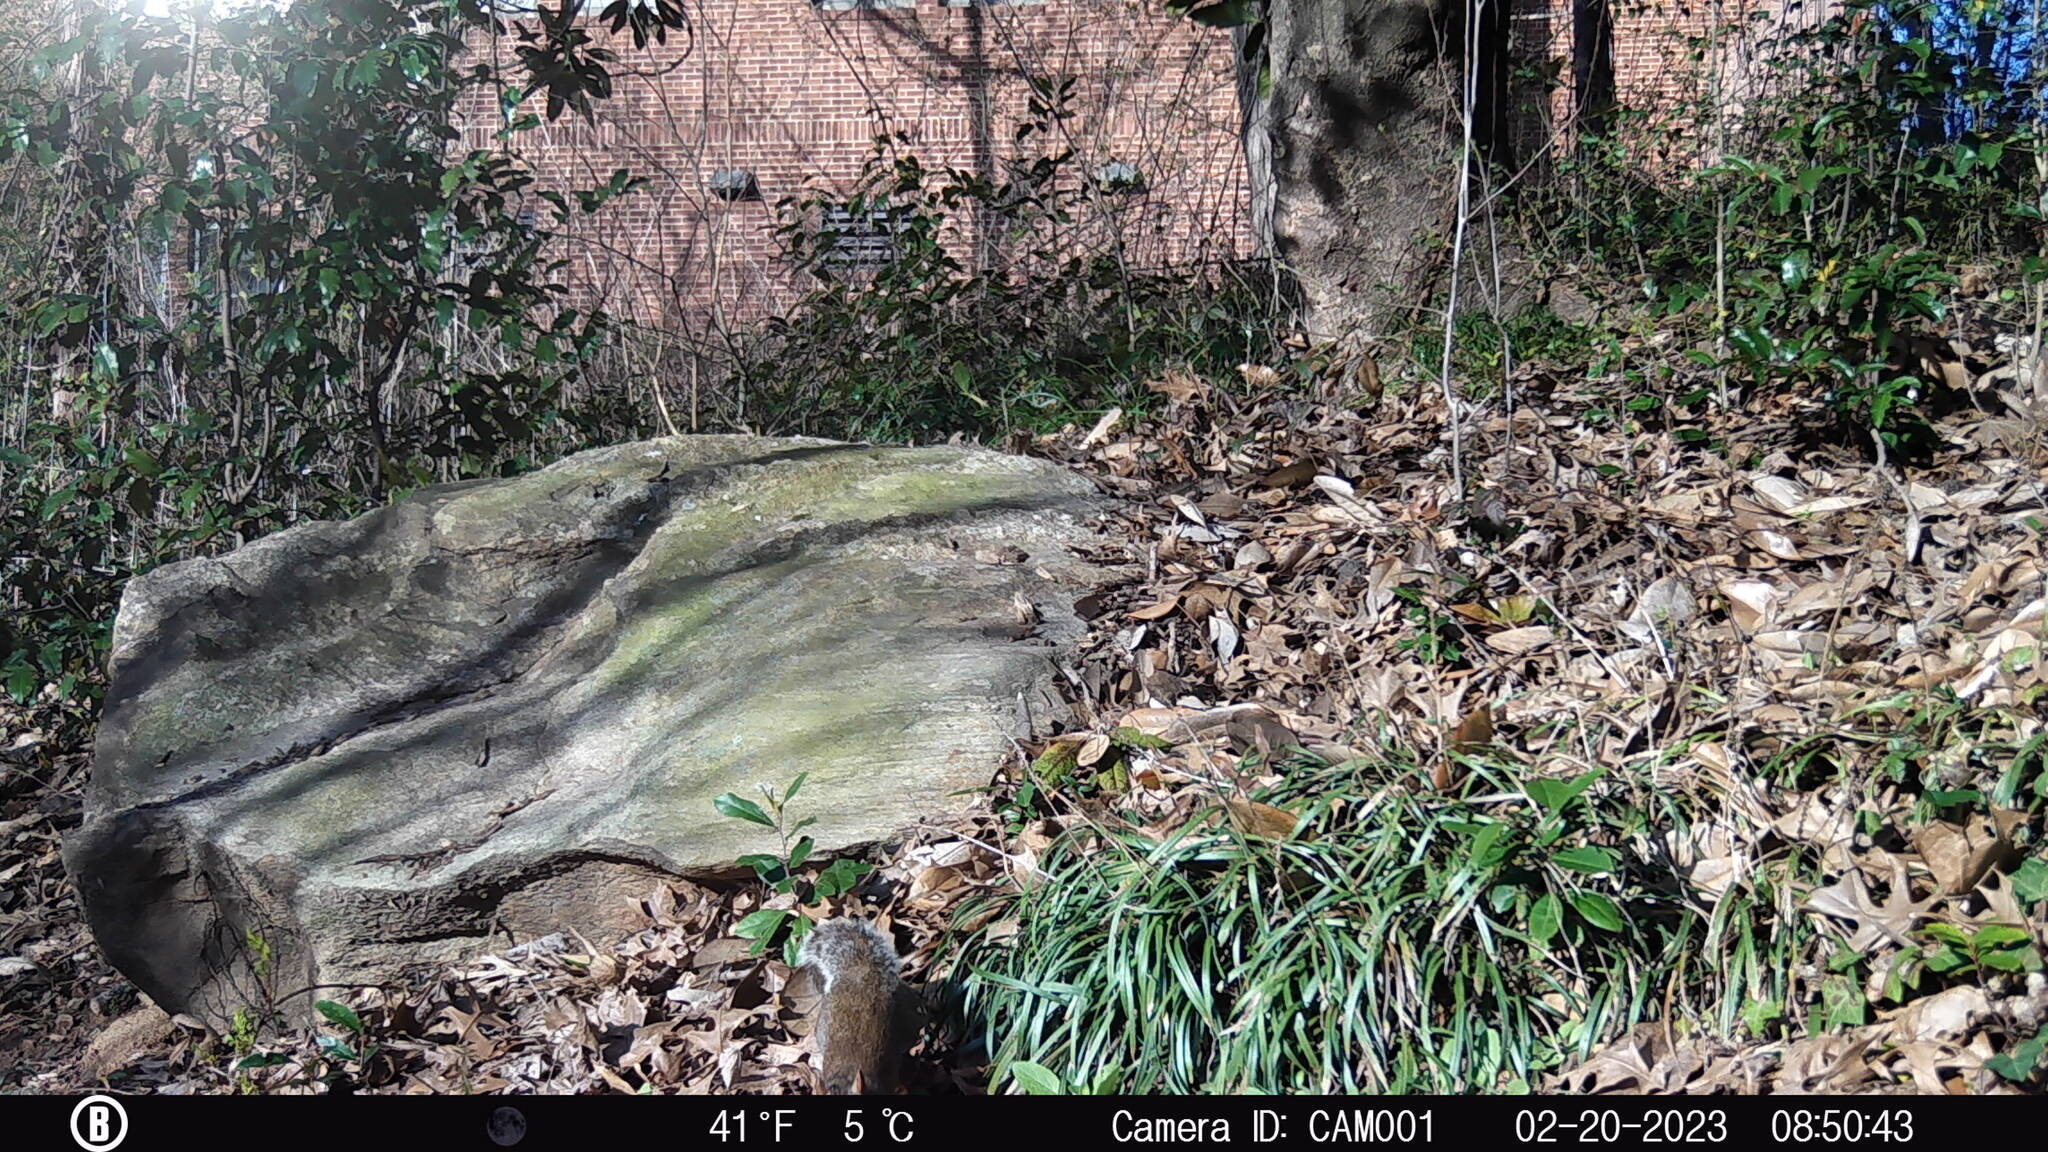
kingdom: Animalia
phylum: Chordata
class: Mammalia
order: Rodentia
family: Sciuridae
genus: Sciurus
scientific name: Sciurus carolinensis
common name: Eastern gray squirrel
